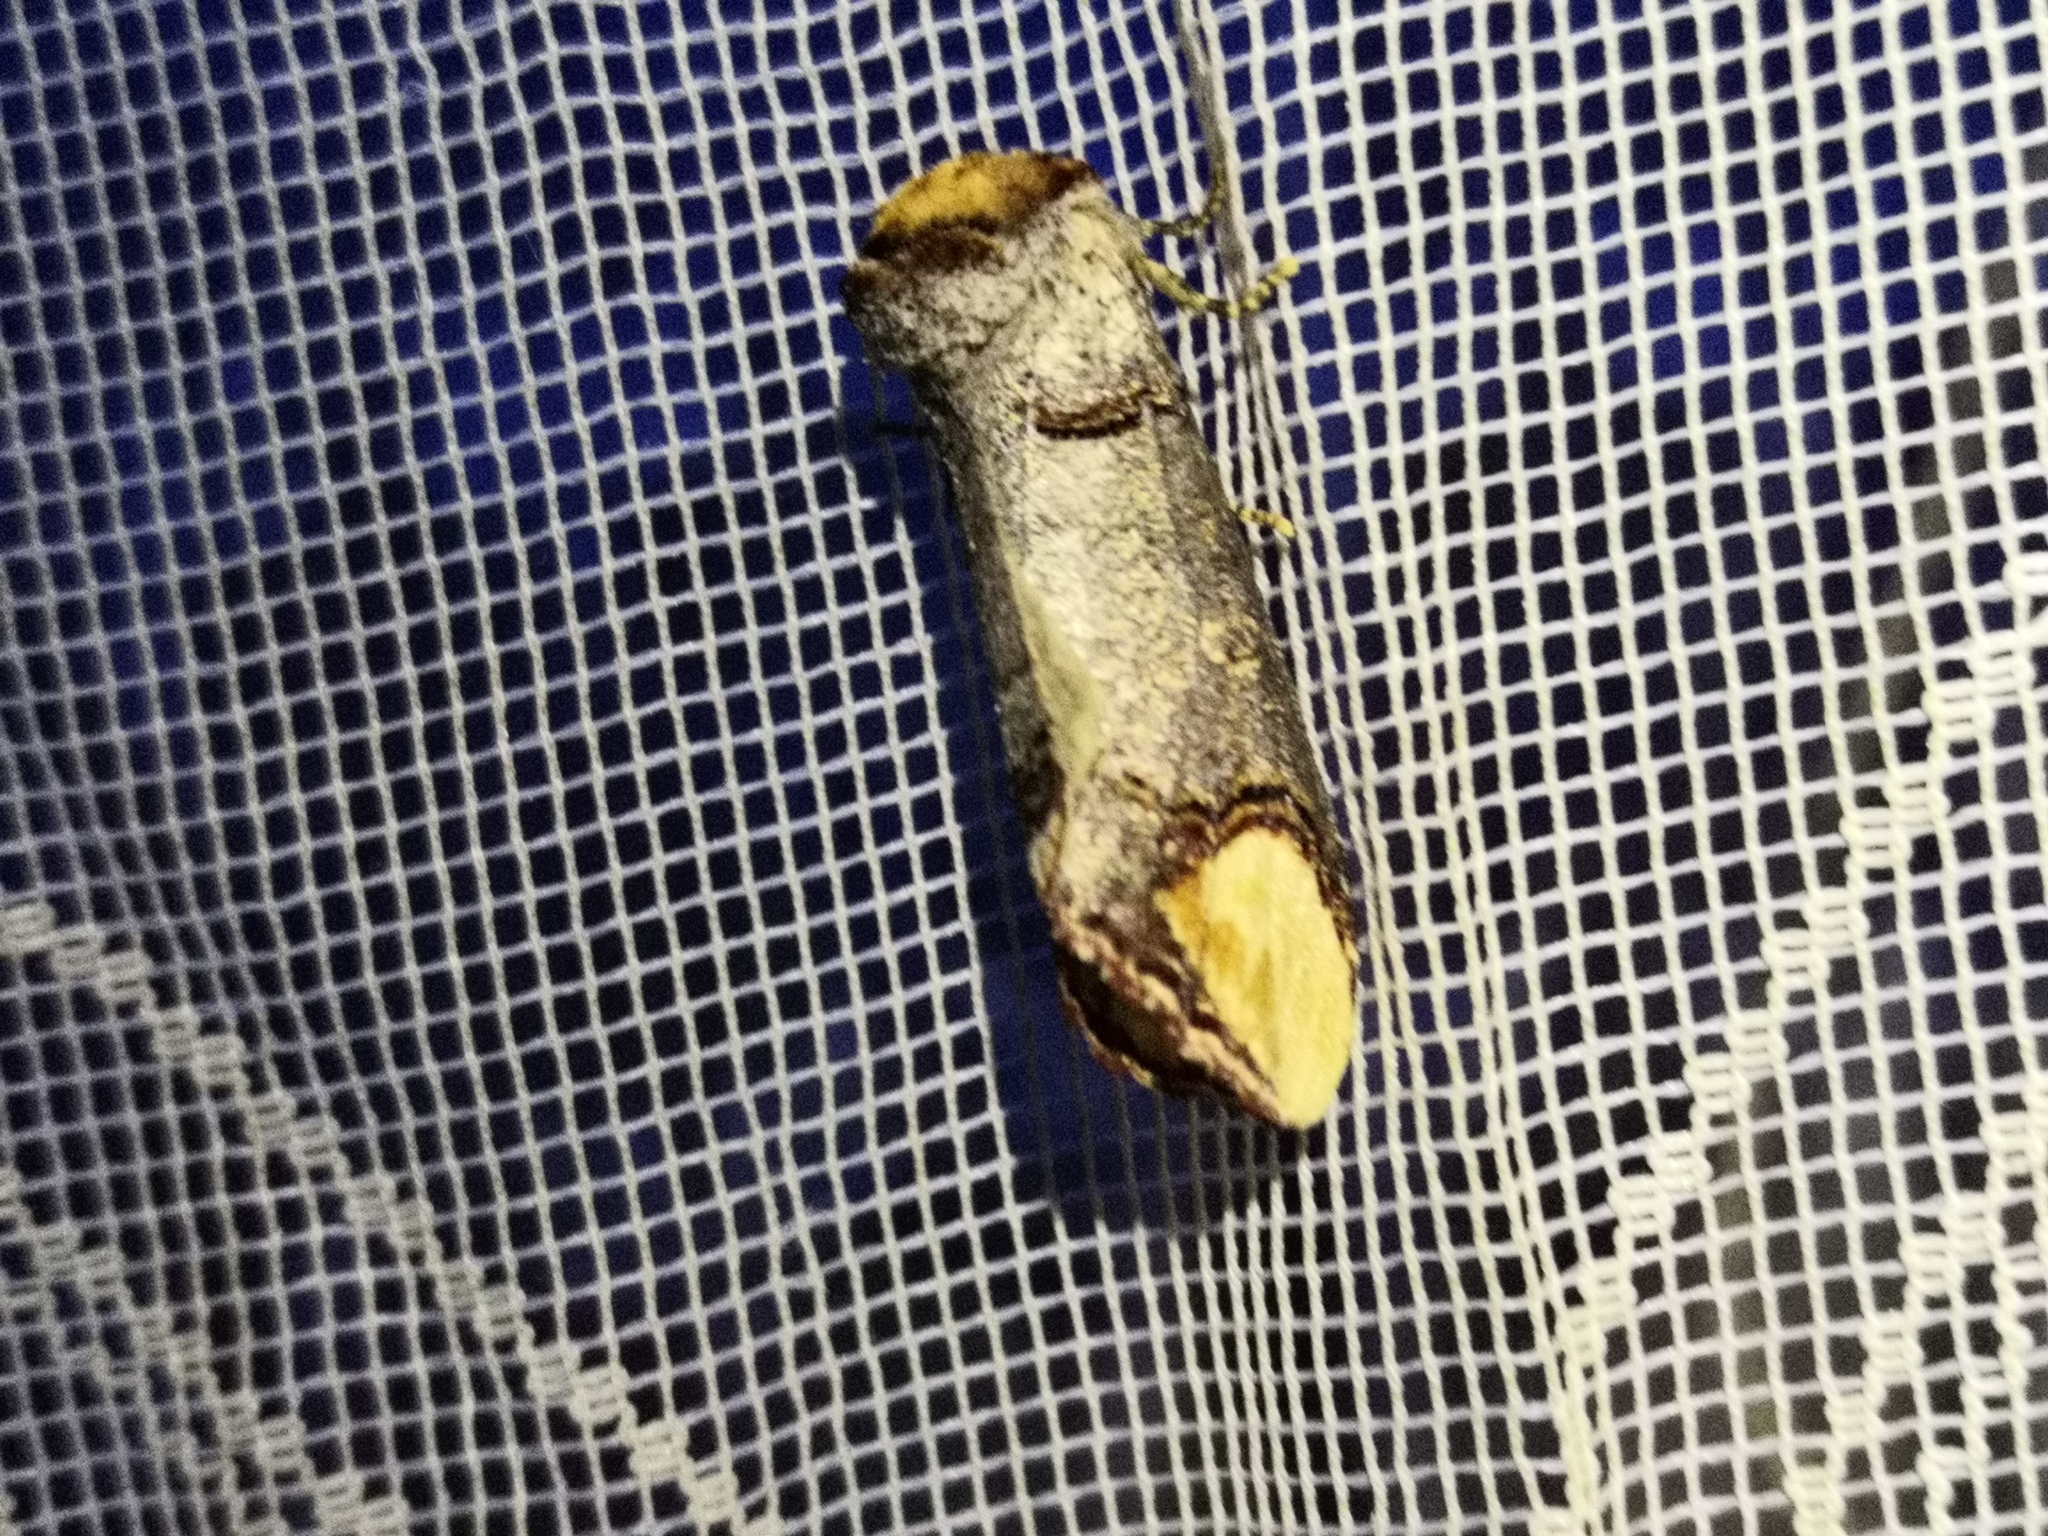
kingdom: Animalia
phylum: Arthropoda
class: Insecta
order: Lepidoptera
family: Notodontidae
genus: Phalera
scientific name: Phalera bucephala
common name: Buff-tip
